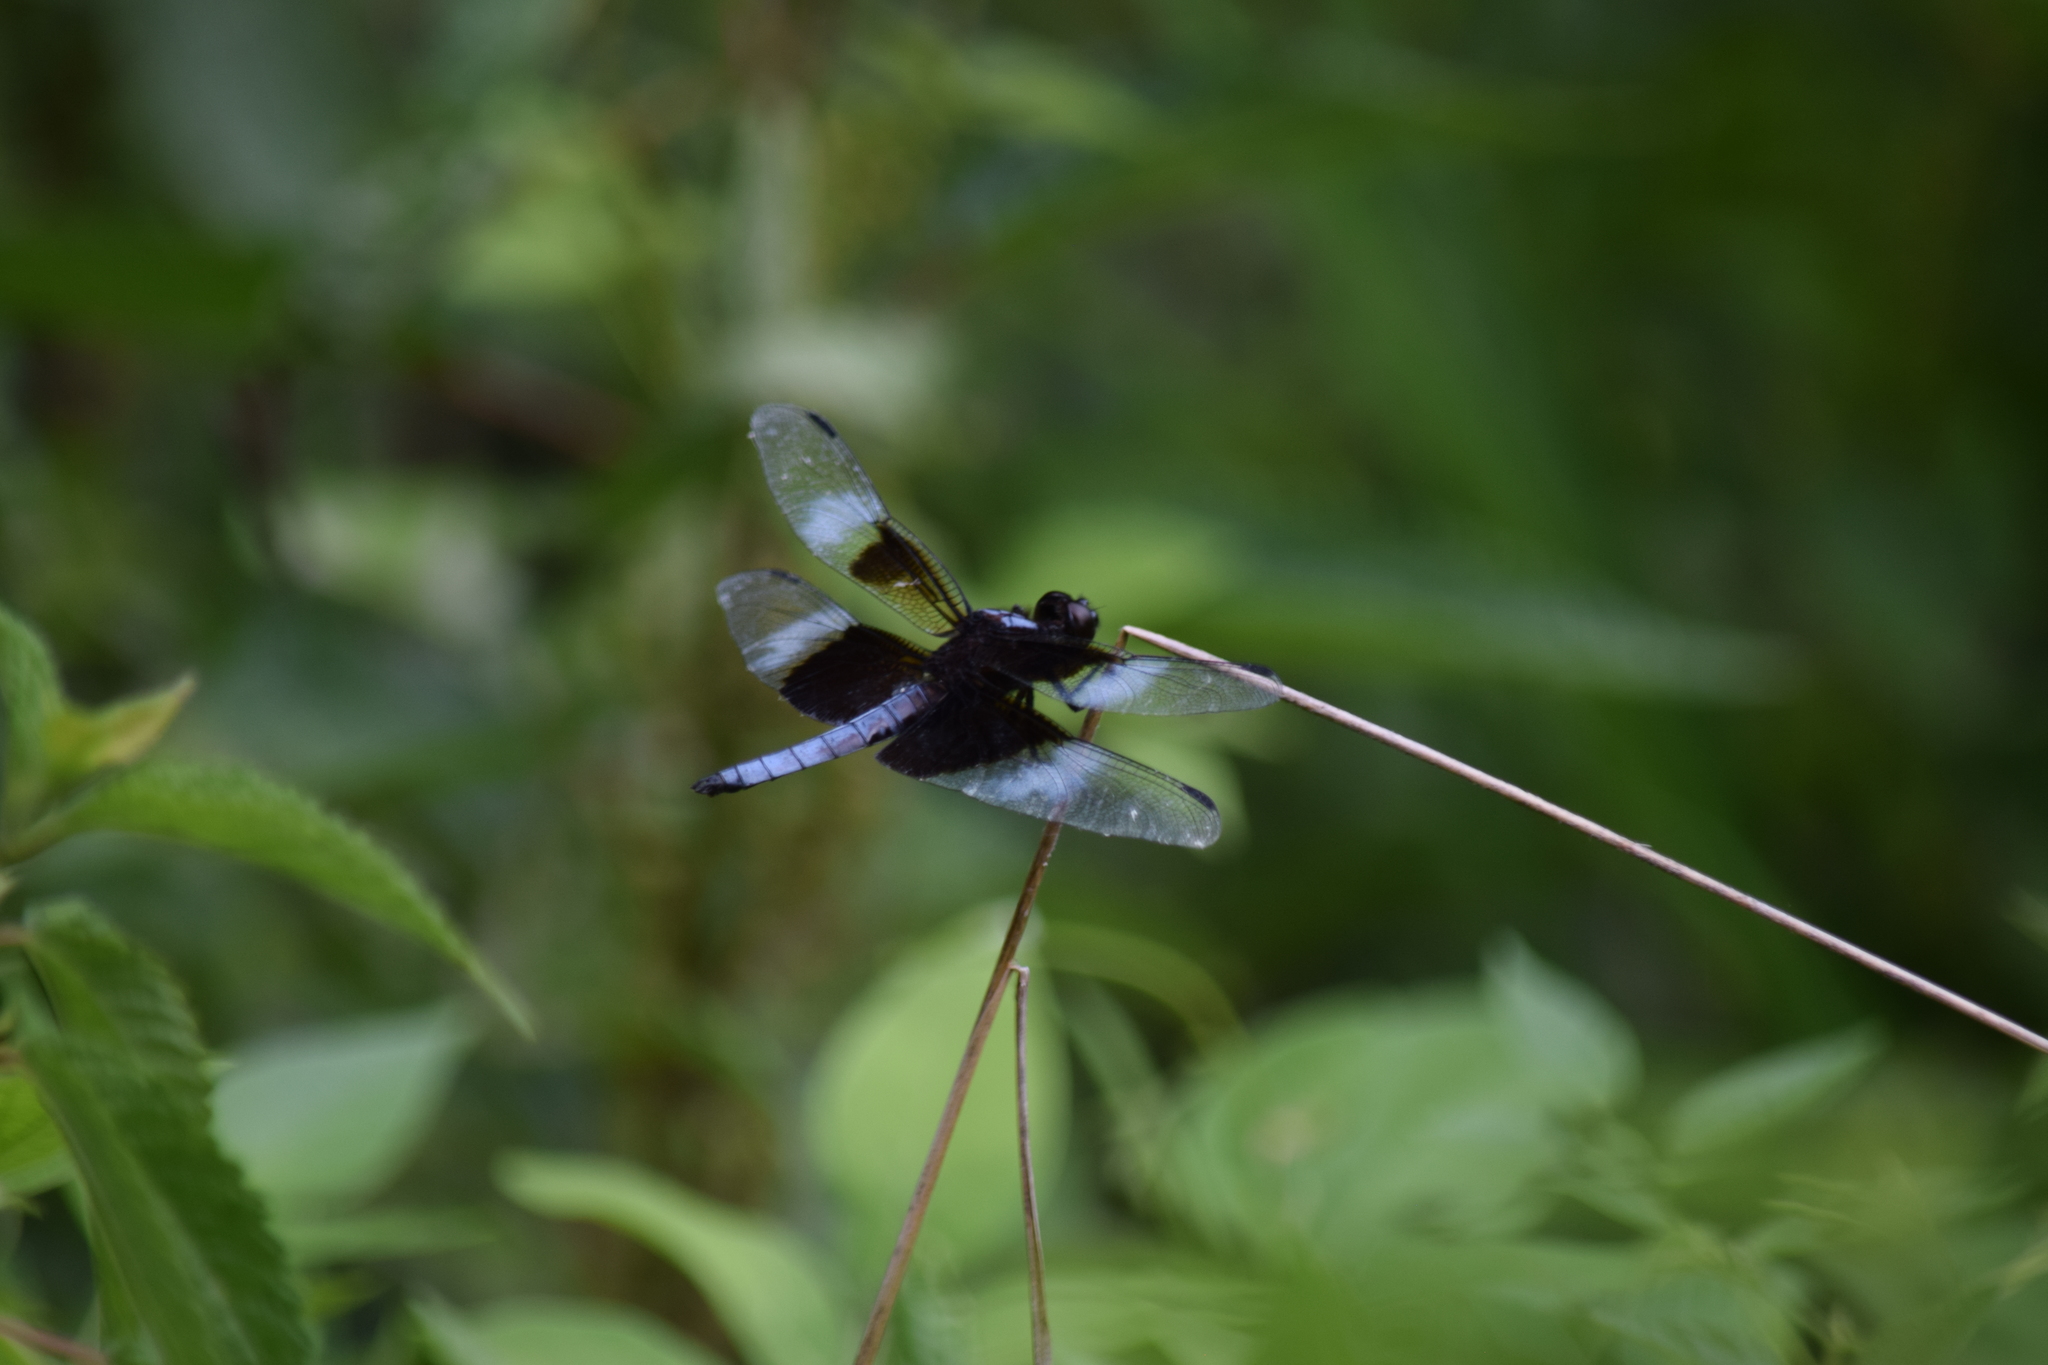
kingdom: Animalia
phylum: Arthropoda
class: Insecta
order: Odonata
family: Libellulidae
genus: Libellula
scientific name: Libellula luctuosa
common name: Widow skimmer
